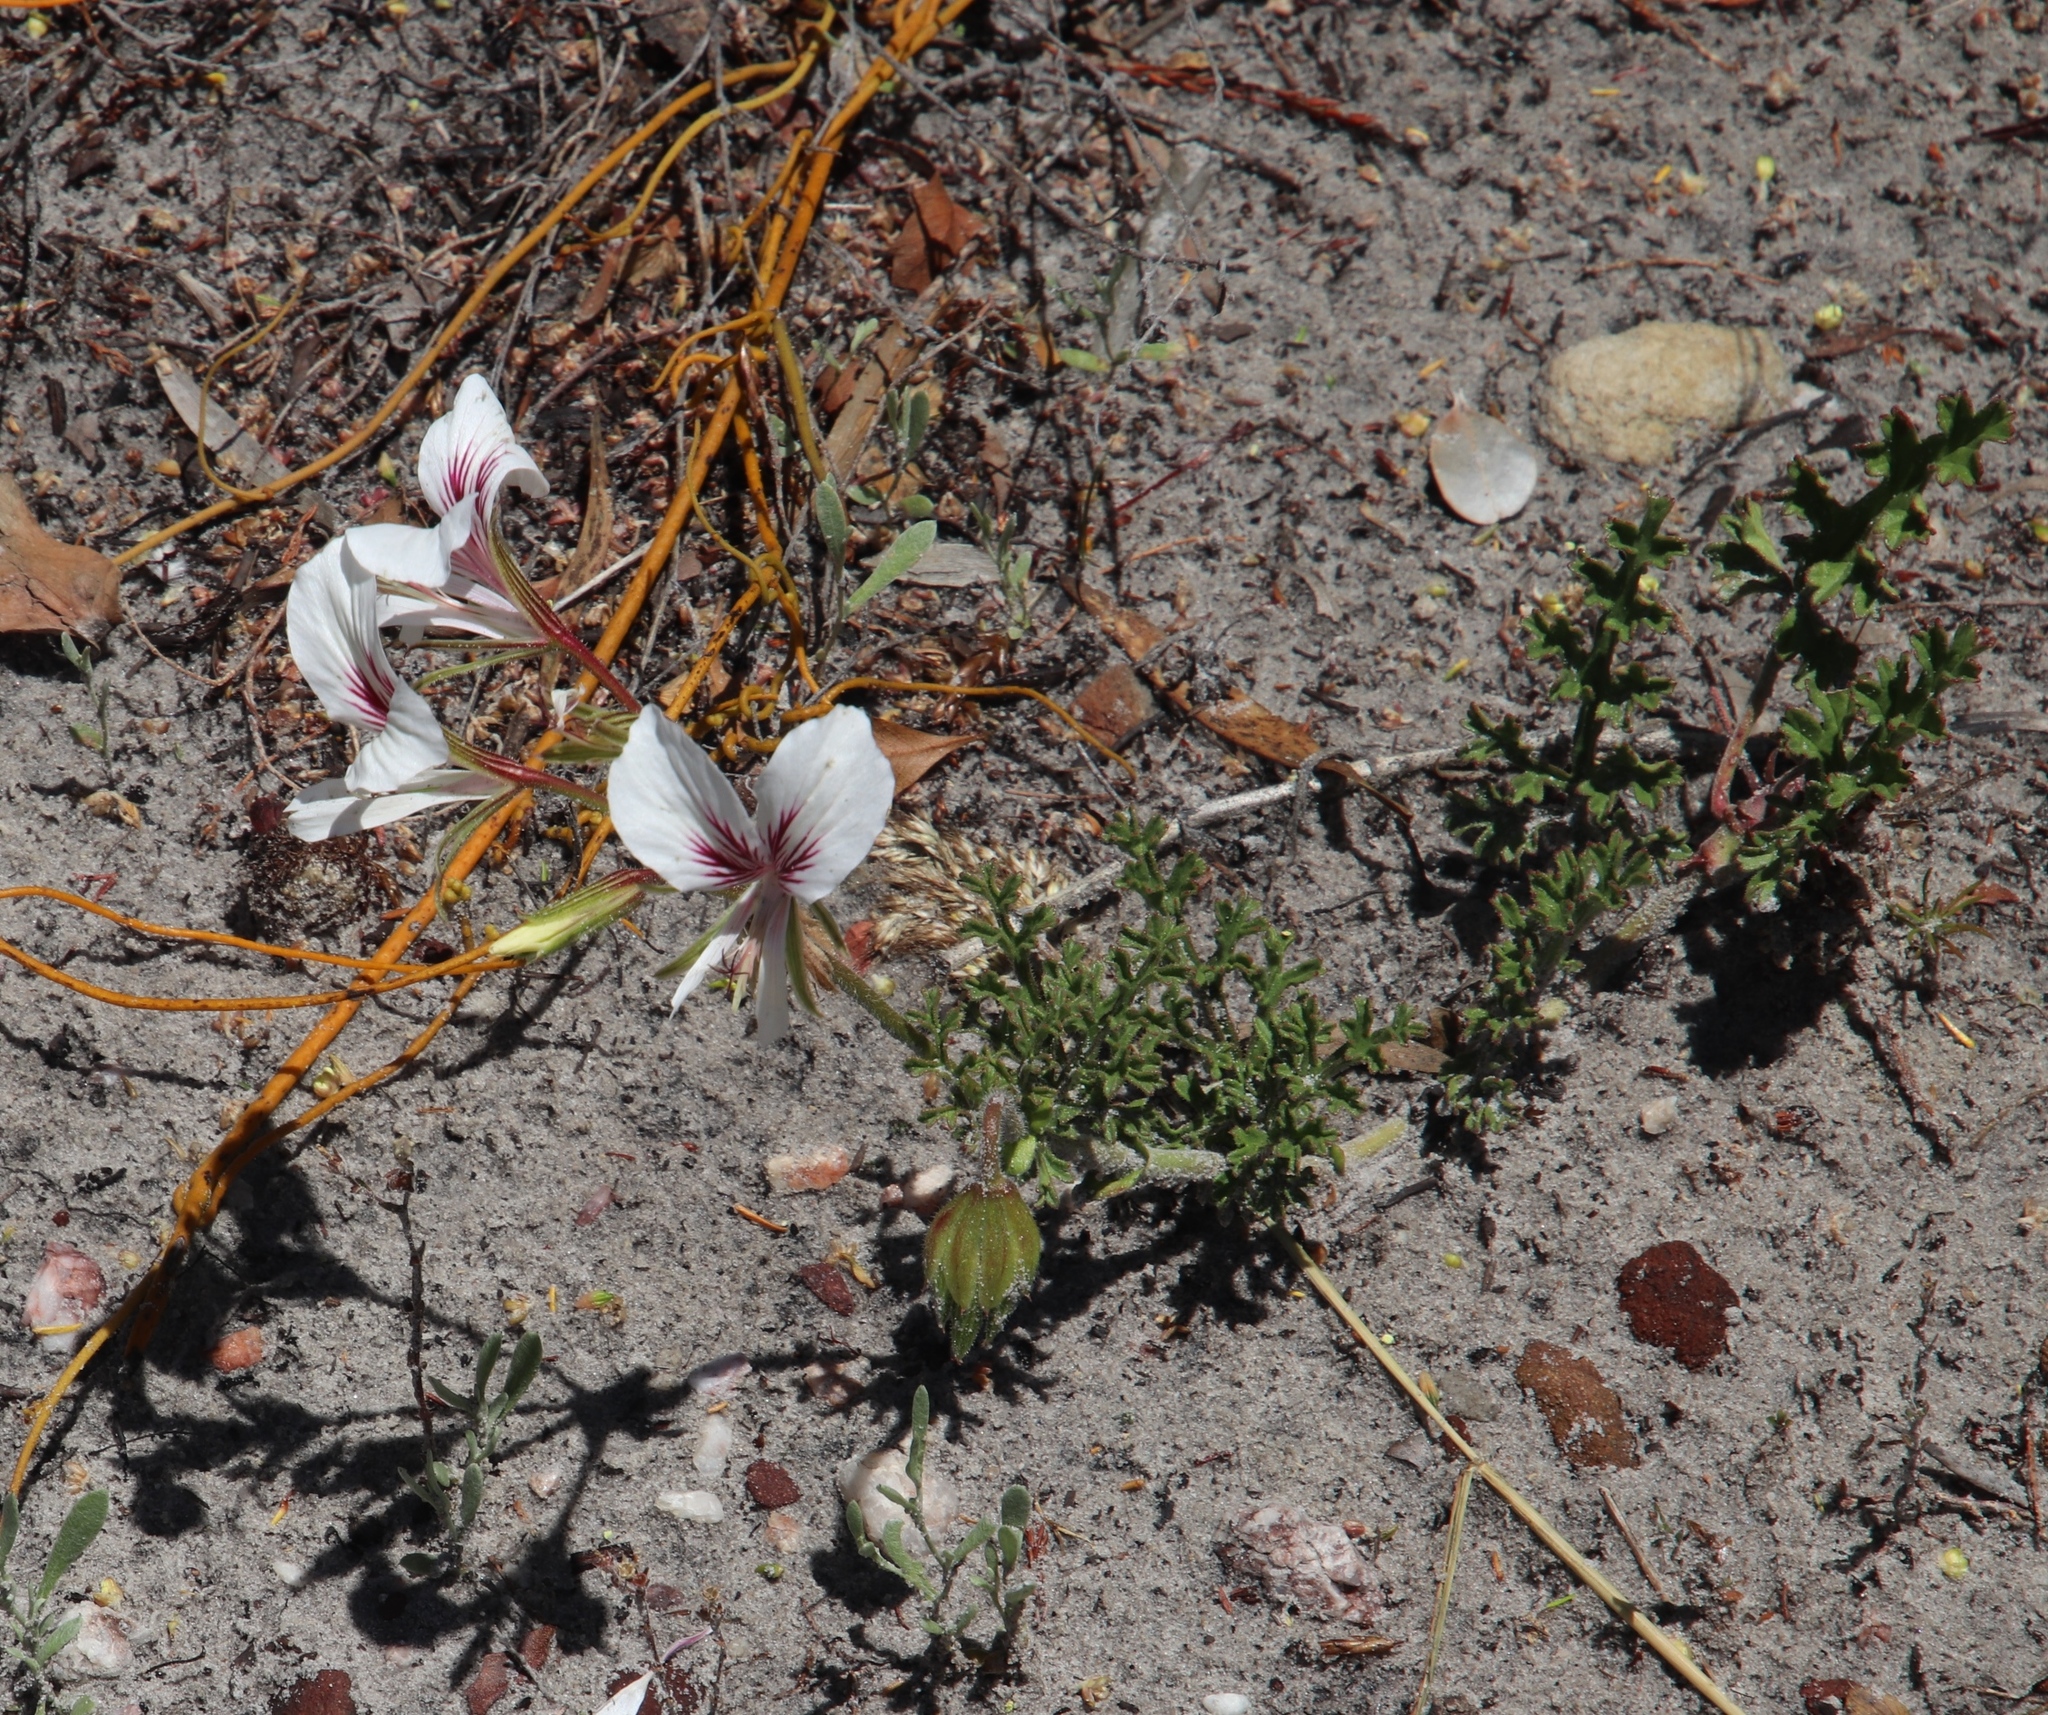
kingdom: Plantae
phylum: Tracheophyta
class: Magnoliopsida
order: Geraniales
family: Geraniaceae
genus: Pelargonium
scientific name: Pelargonium suburbanum
